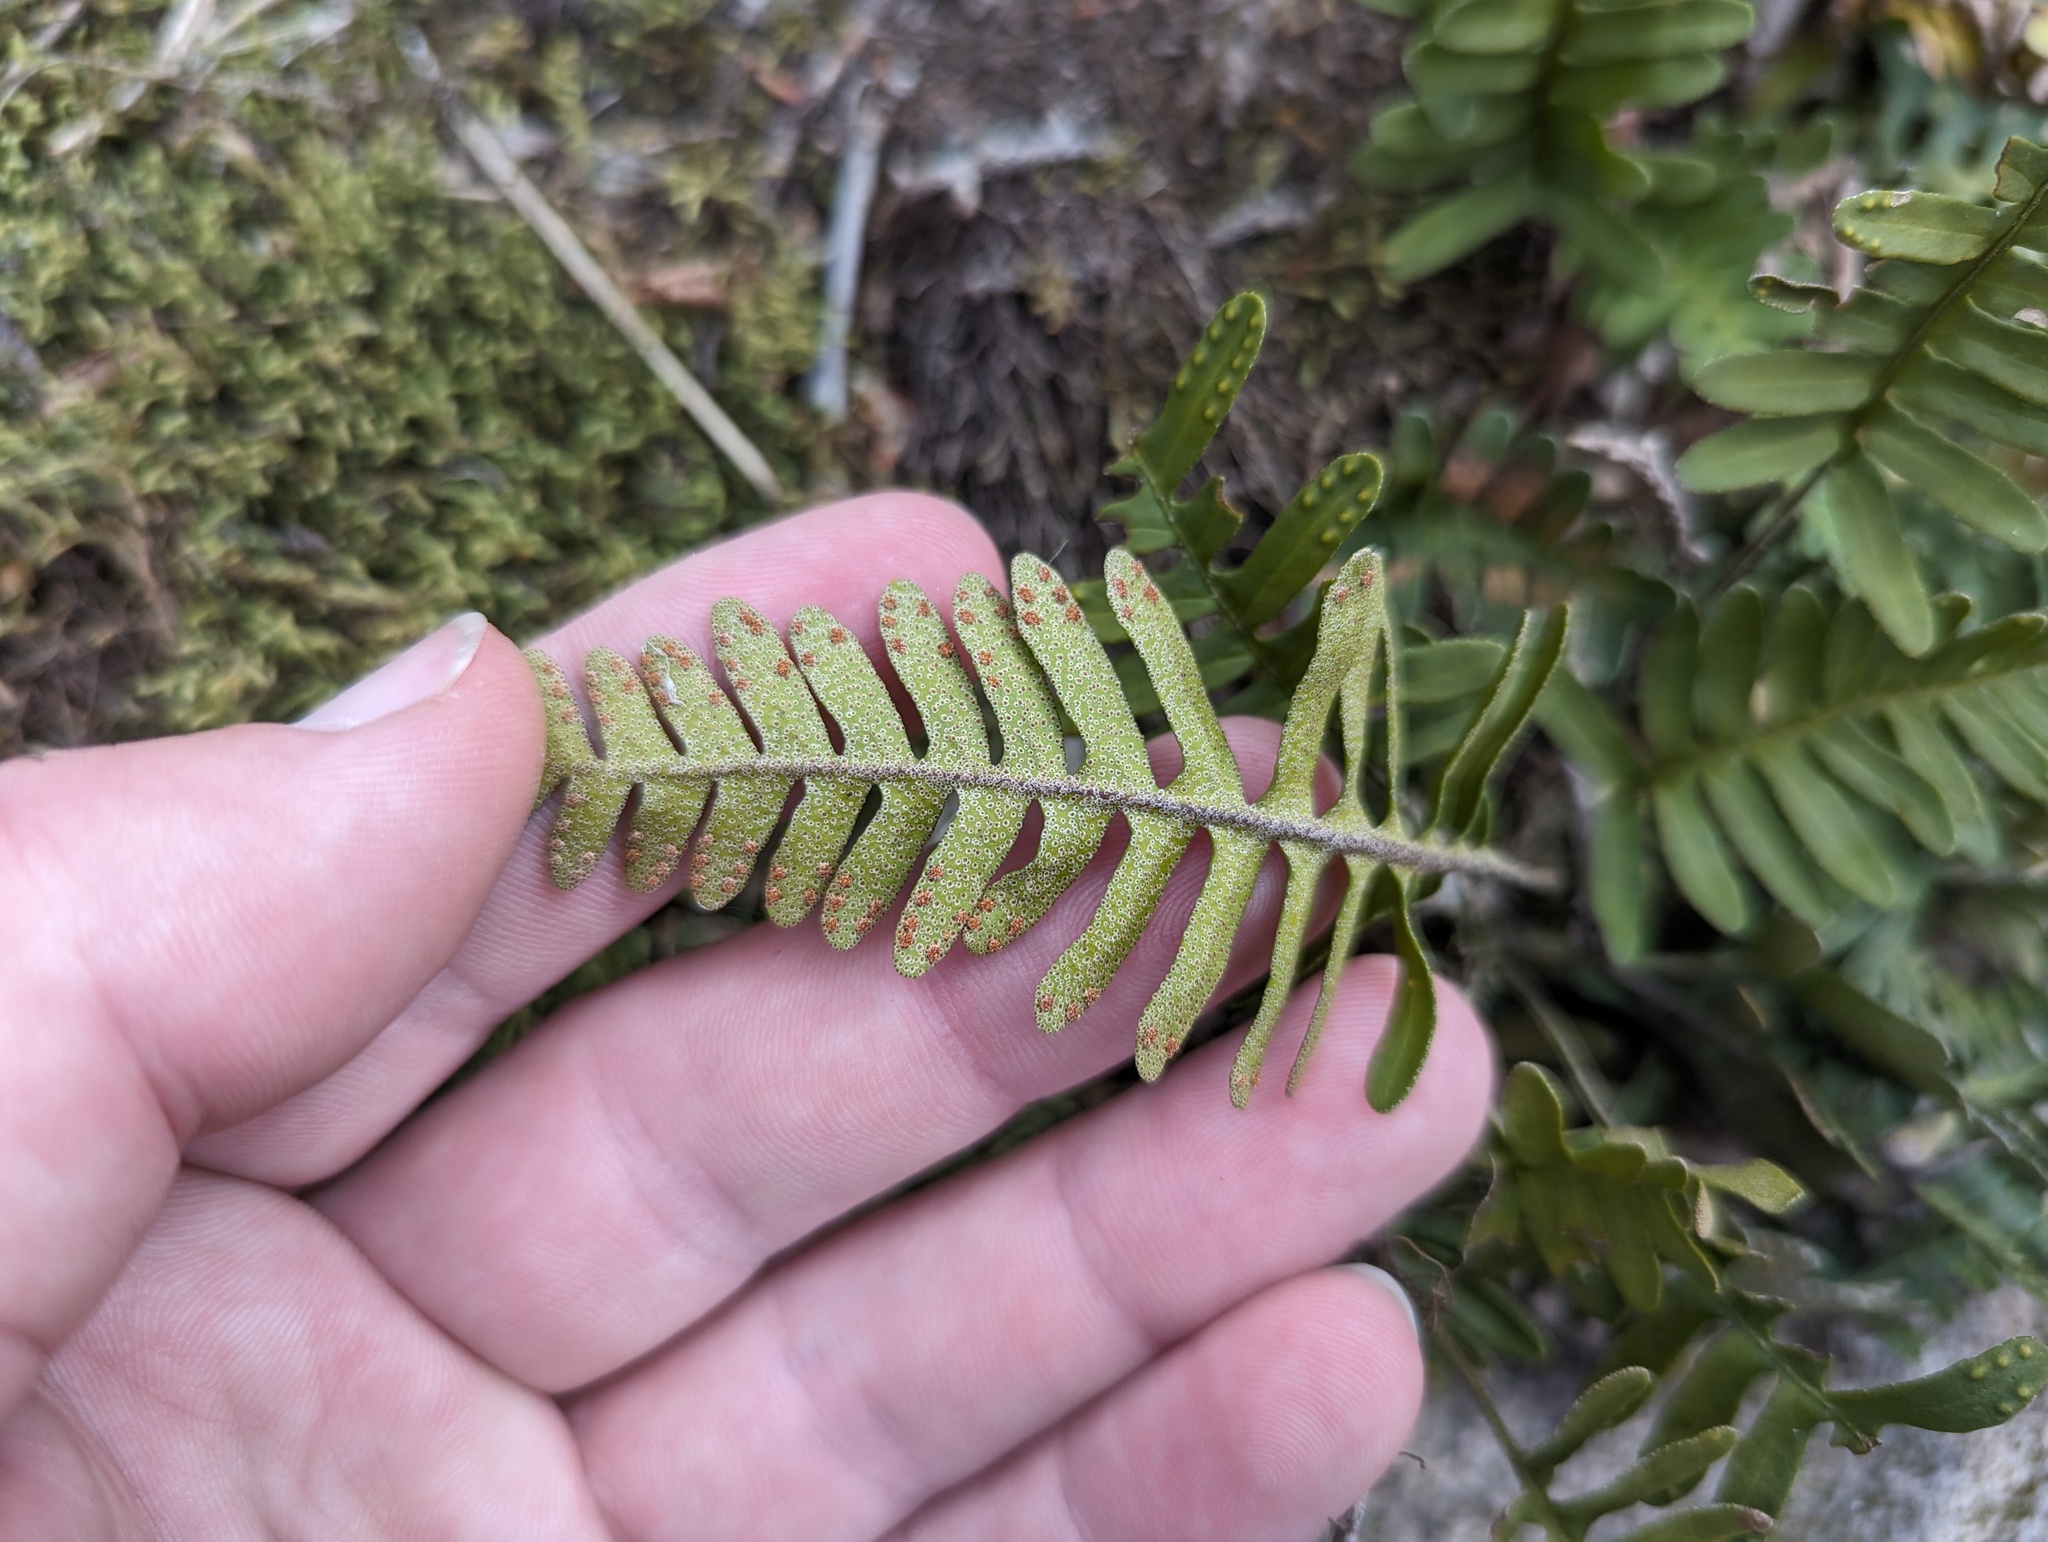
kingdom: Plantae
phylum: Tracheophyta
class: Polypodiopsida
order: Polypodiales
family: Polypodiaceae
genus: Pleopeltis
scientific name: Pleopeltis michauxiana
